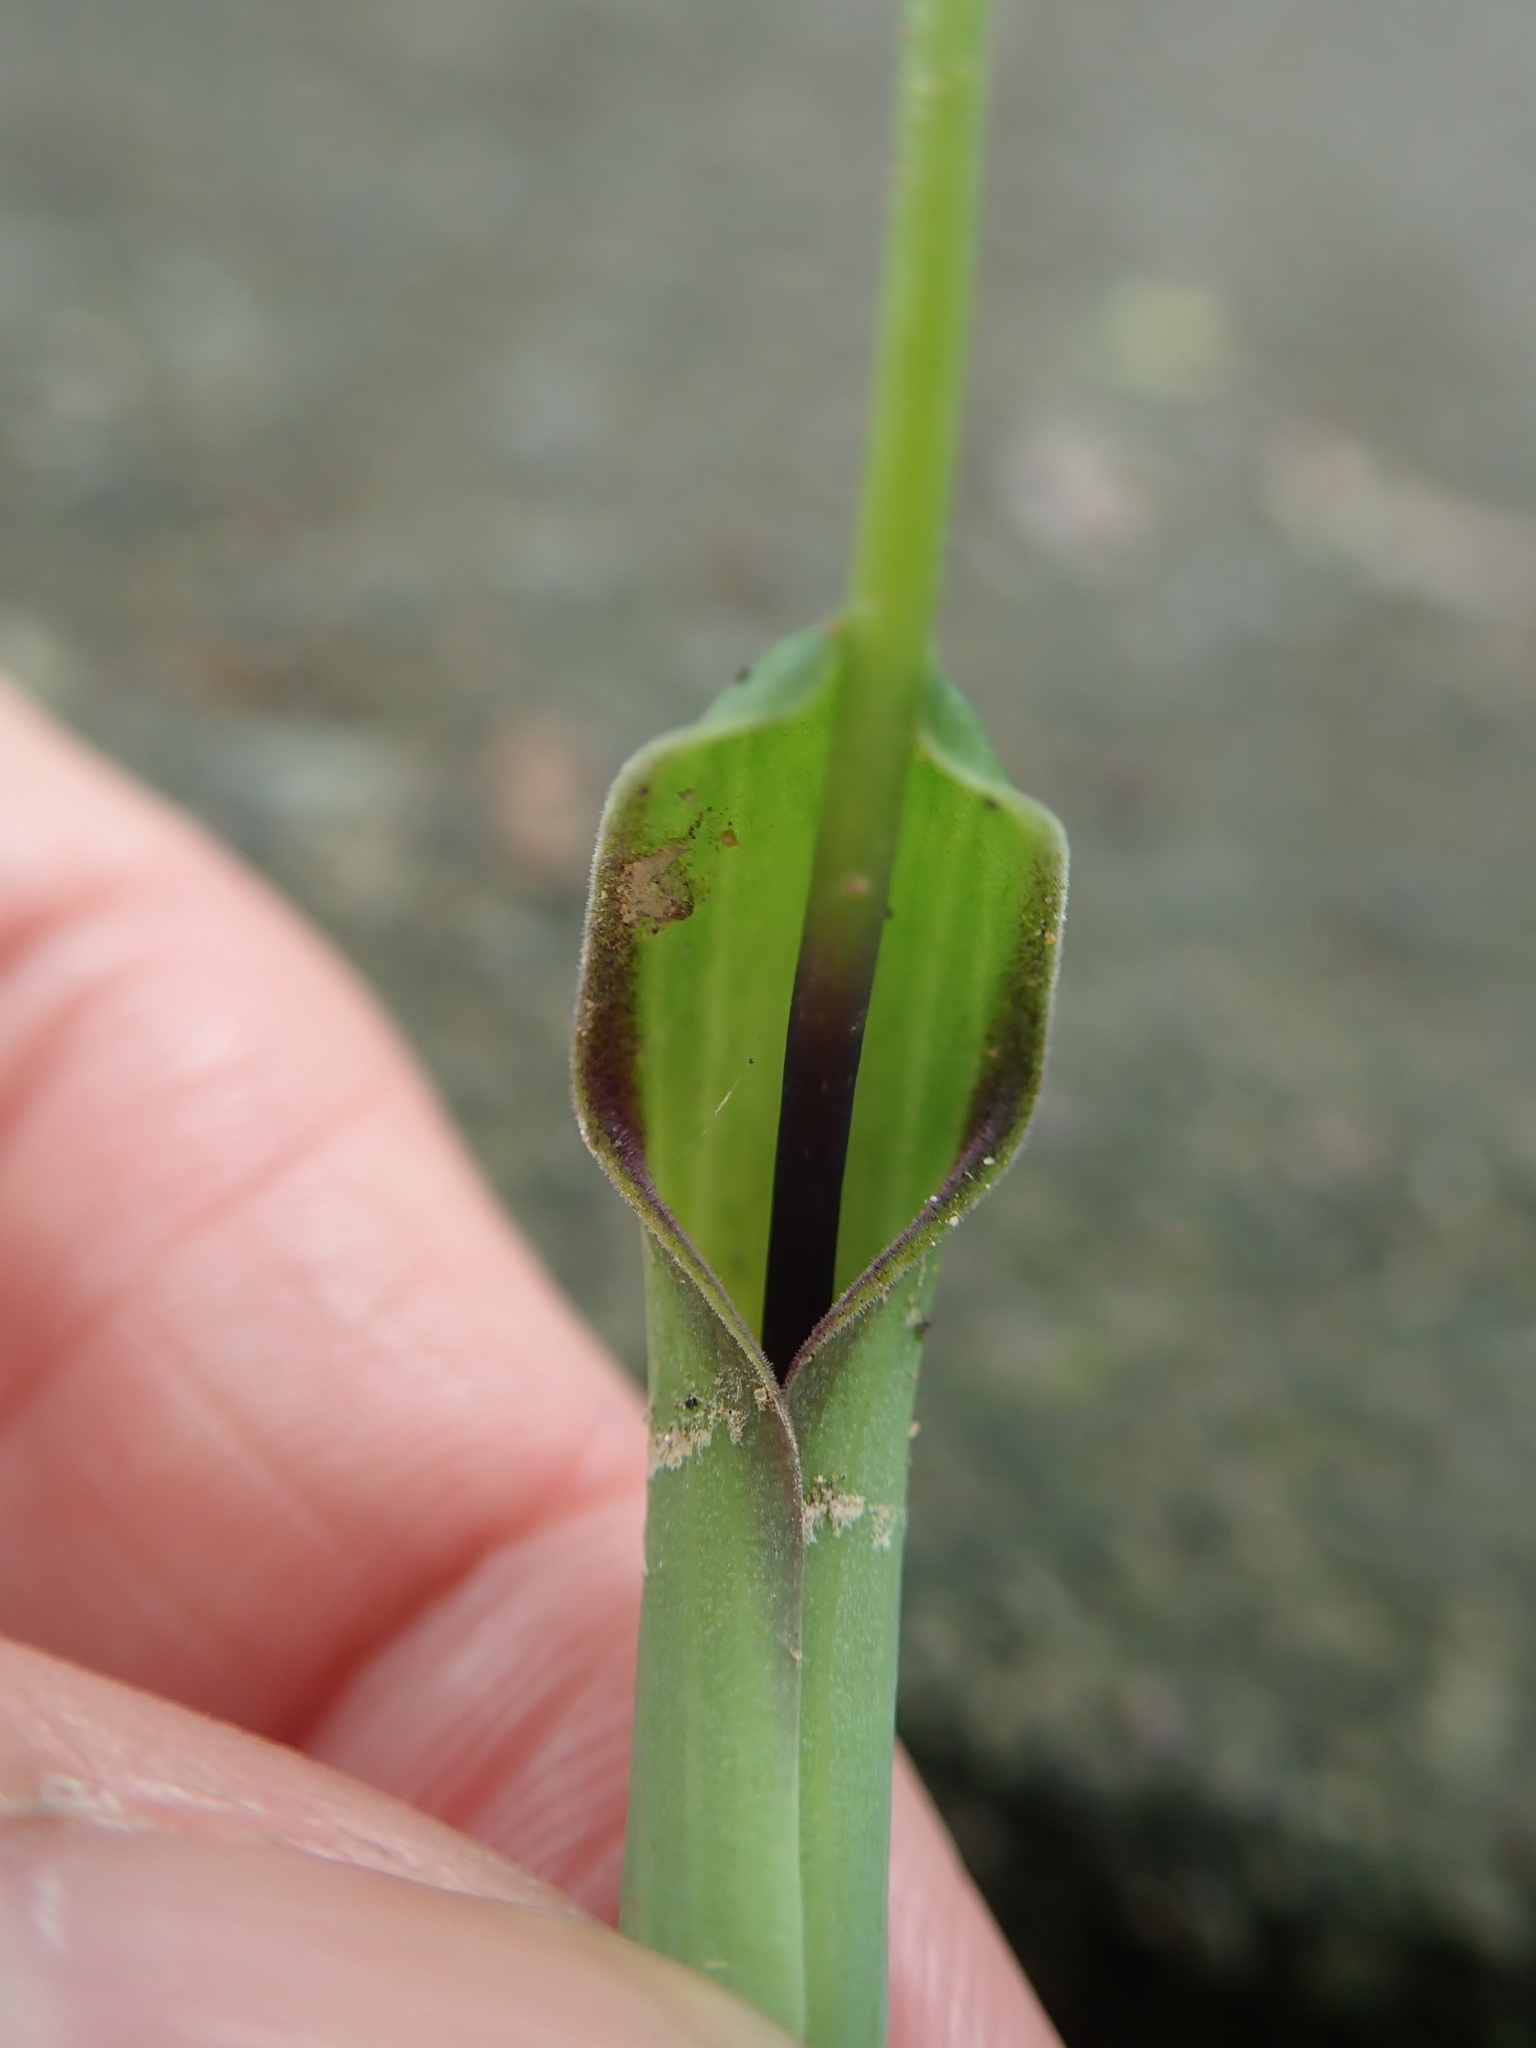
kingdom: Plantae
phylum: Tracheophyta
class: Liliopsida
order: Alismatales
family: Araceae
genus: Pinellia
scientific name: Pinellia ternata
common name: Pinellia
